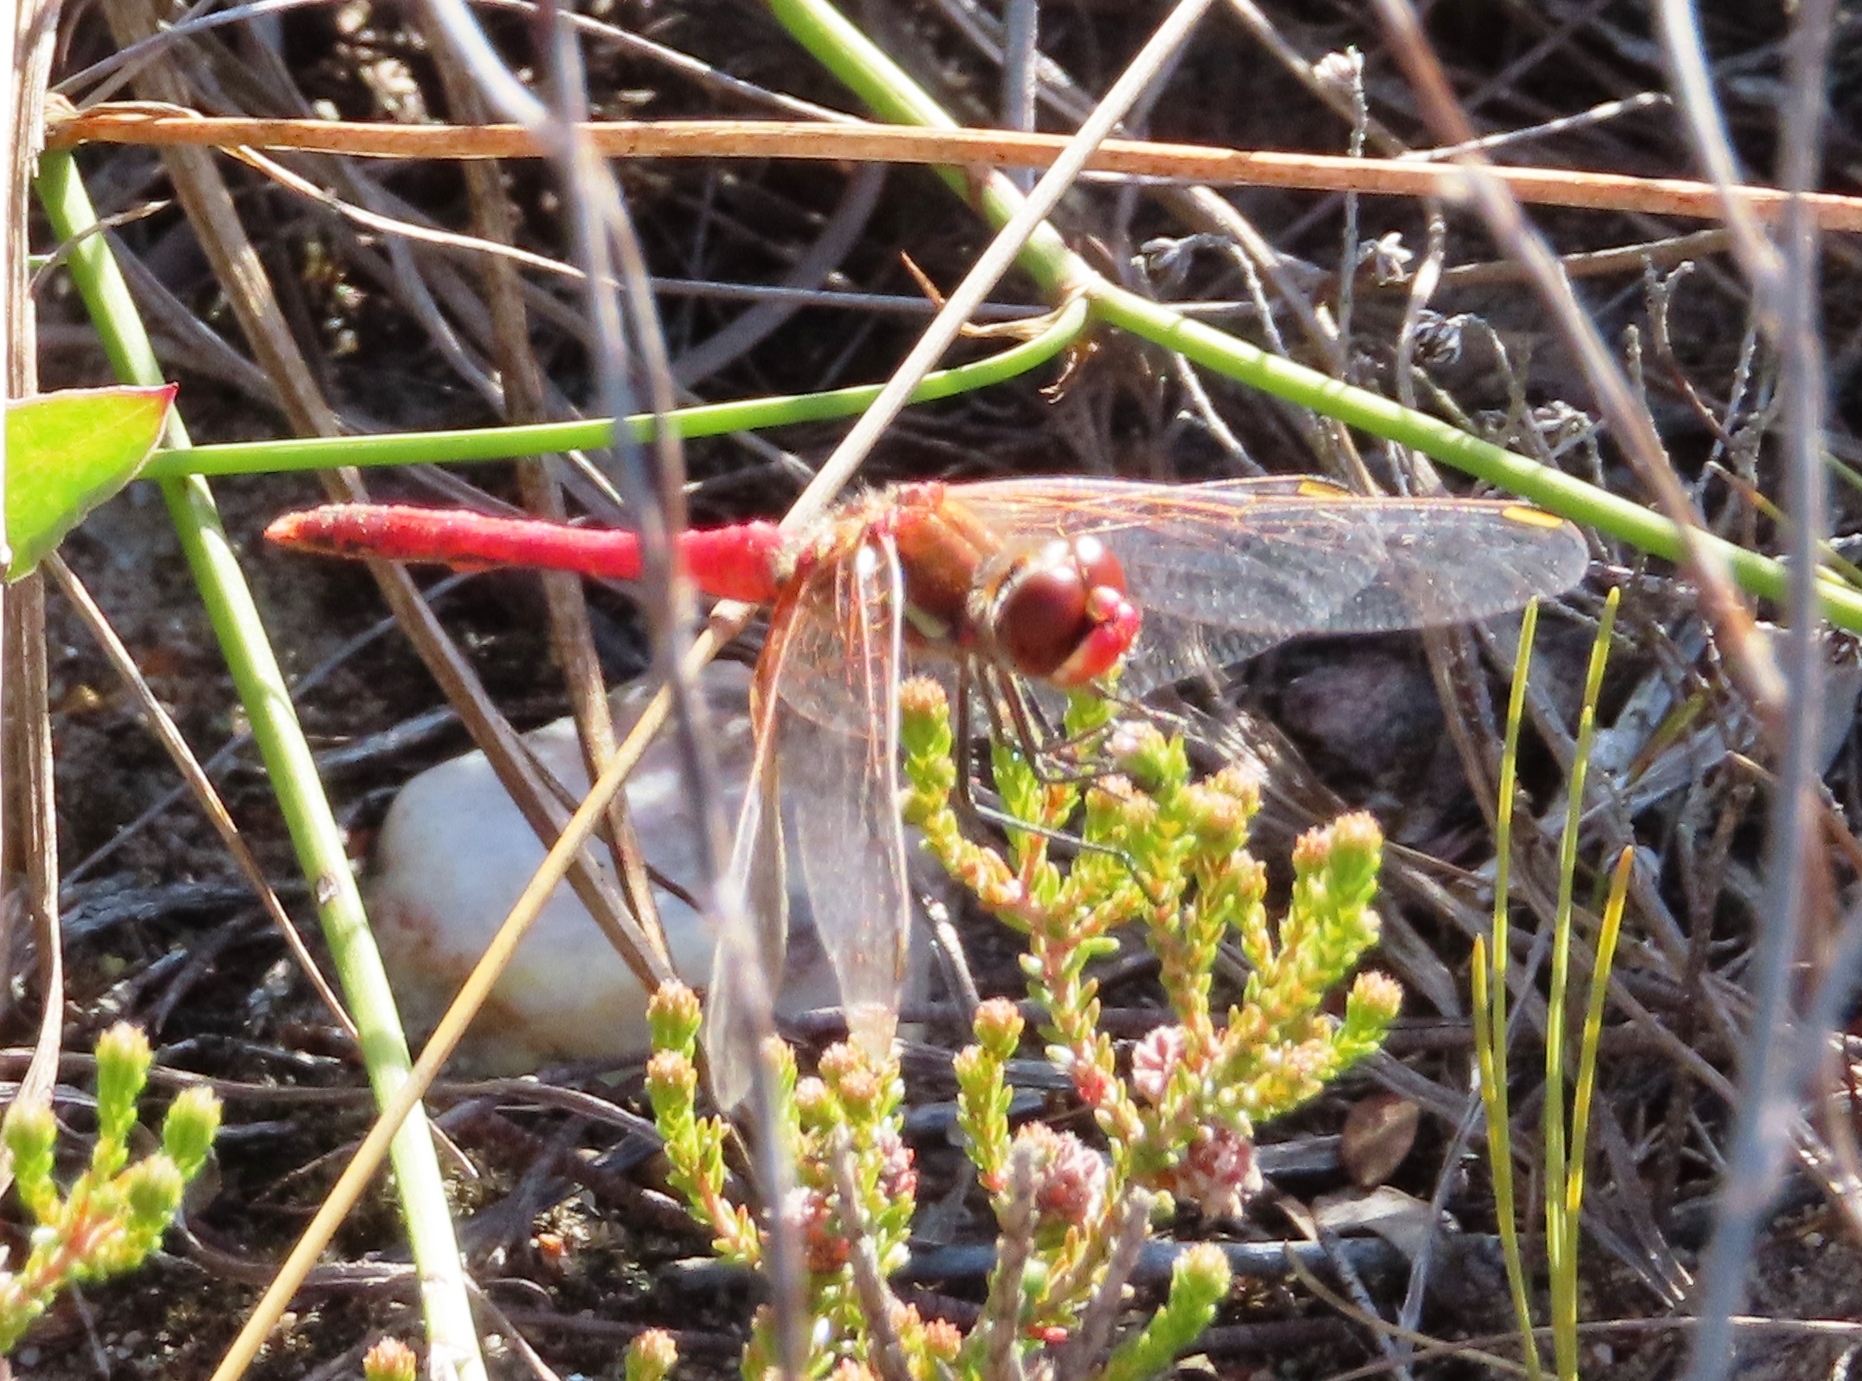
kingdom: Animalia
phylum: Arthropoda
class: Insecta
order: Odonata
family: Libellulidae
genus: Sympetrum
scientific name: Sympetrum fonscolombii
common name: Red-veined darter
